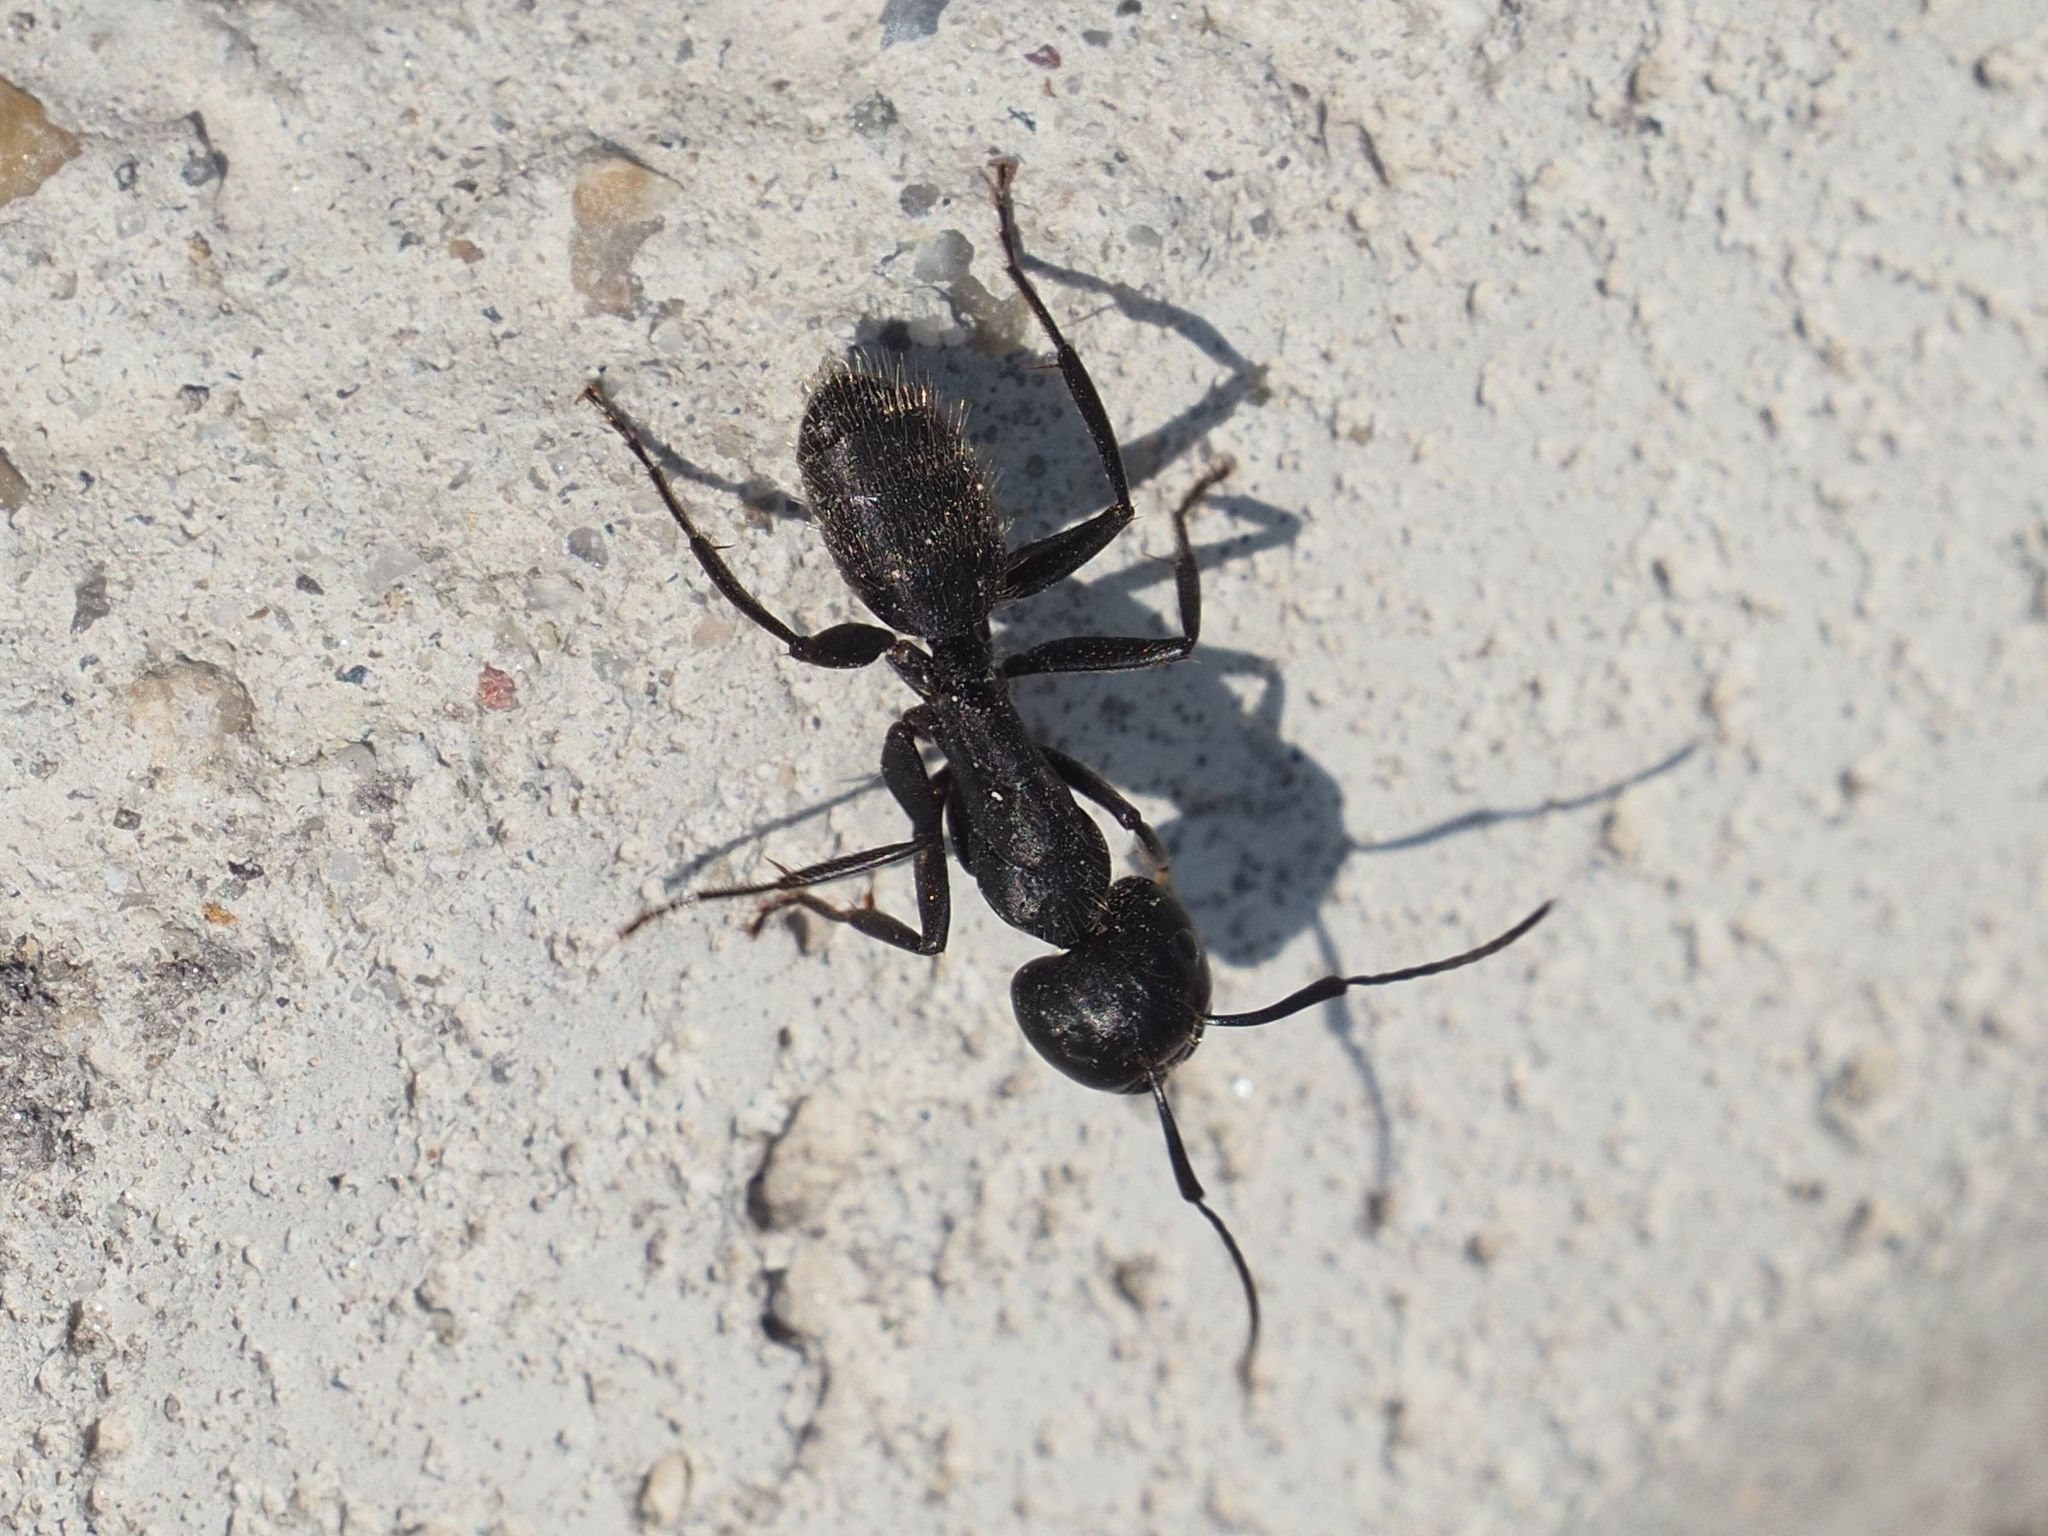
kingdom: Animalia
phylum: Arthropoda
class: Insecta
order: Hymenoptera
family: Formicidae
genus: Camponotus
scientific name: Camponotus vagus
